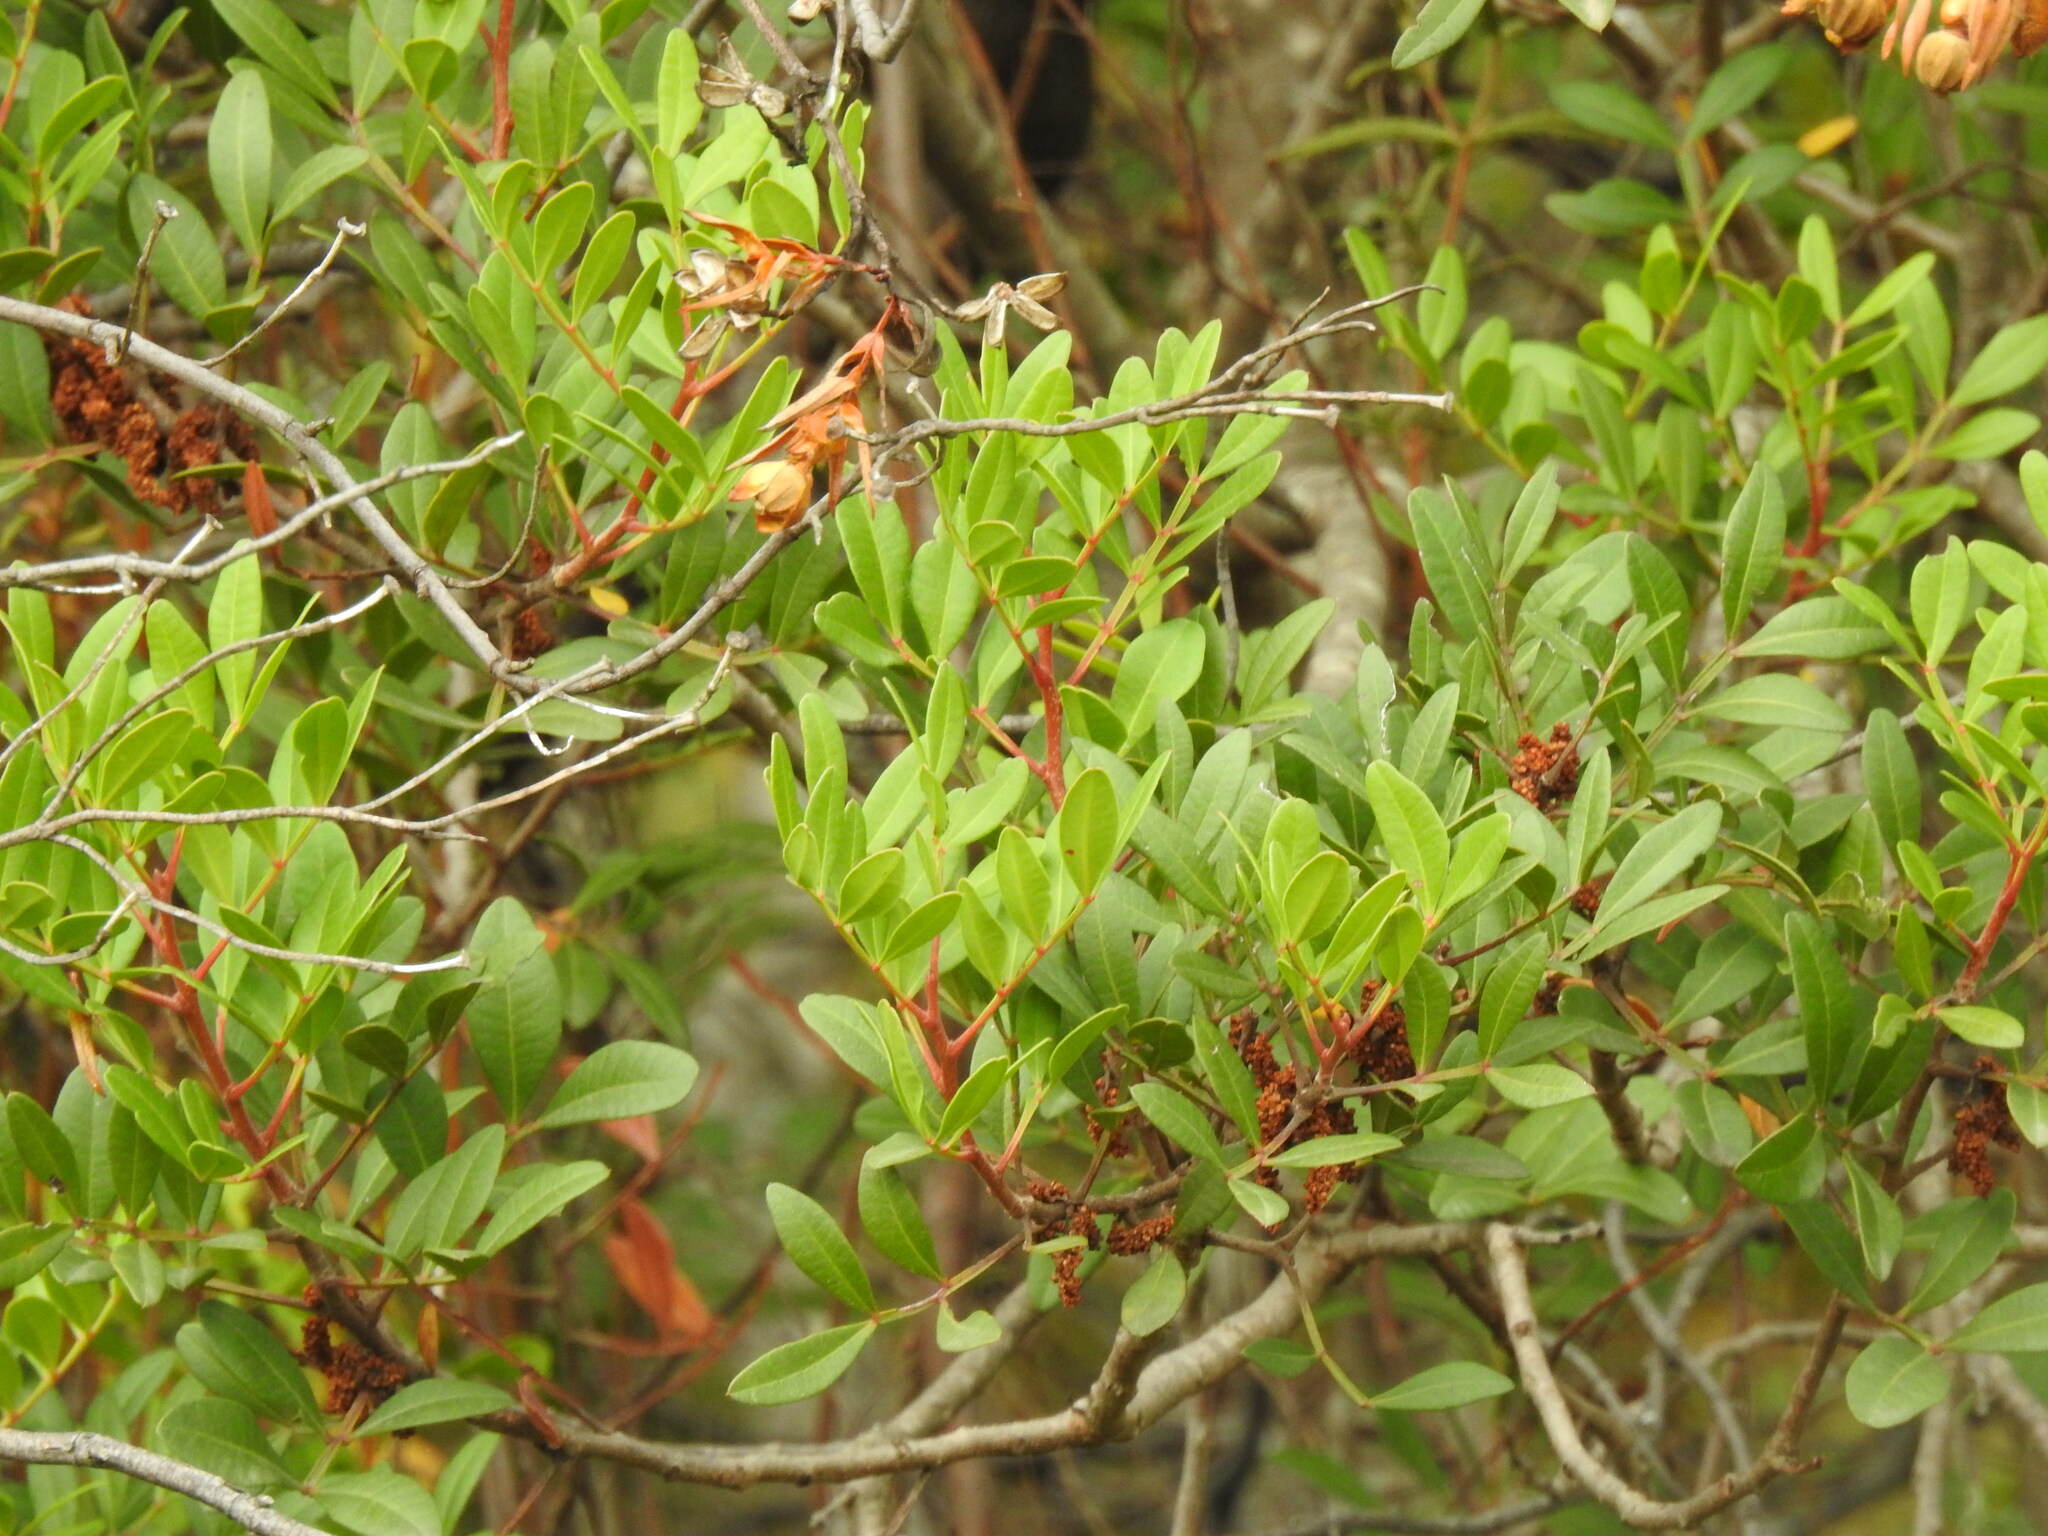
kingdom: Plantae
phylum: Tracheophyta
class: Magnoliopsida
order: Sapindales
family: Anacardiaceae
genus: Pistacia
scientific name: Pistacia lentiscus
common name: Lentisk
